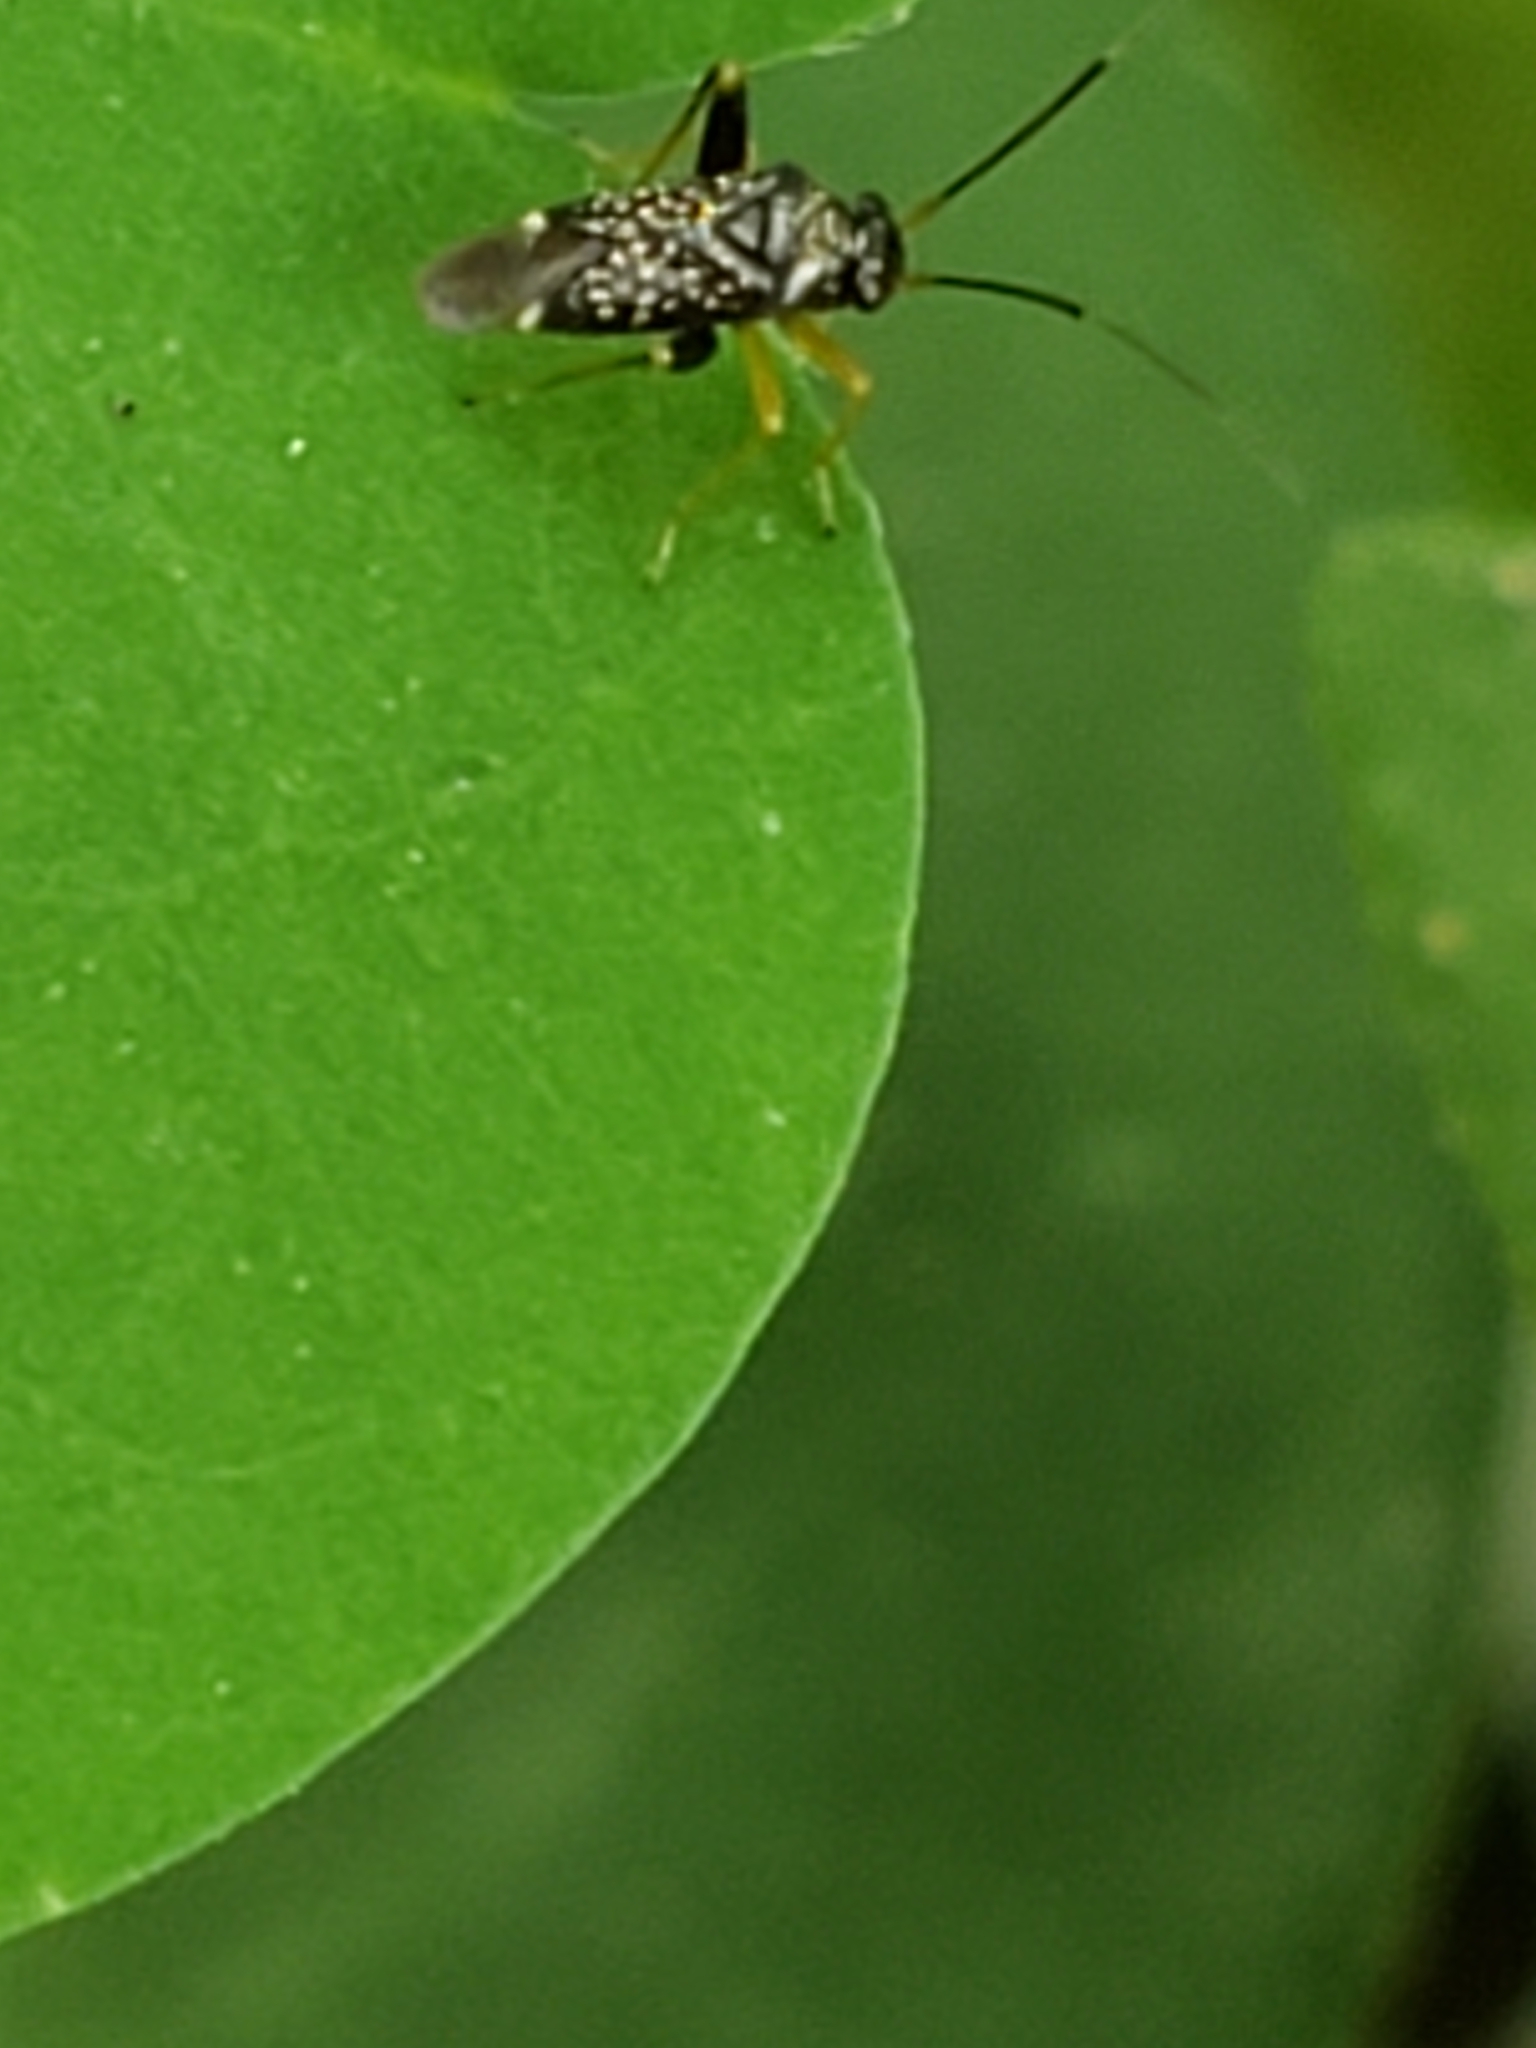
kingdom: Animalia
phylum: Arthropoda
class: Insecta
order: Hemiptera
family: Miridae
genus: Microtechnites
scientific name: Microtechnites bractatus
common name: Garden fleahopper
